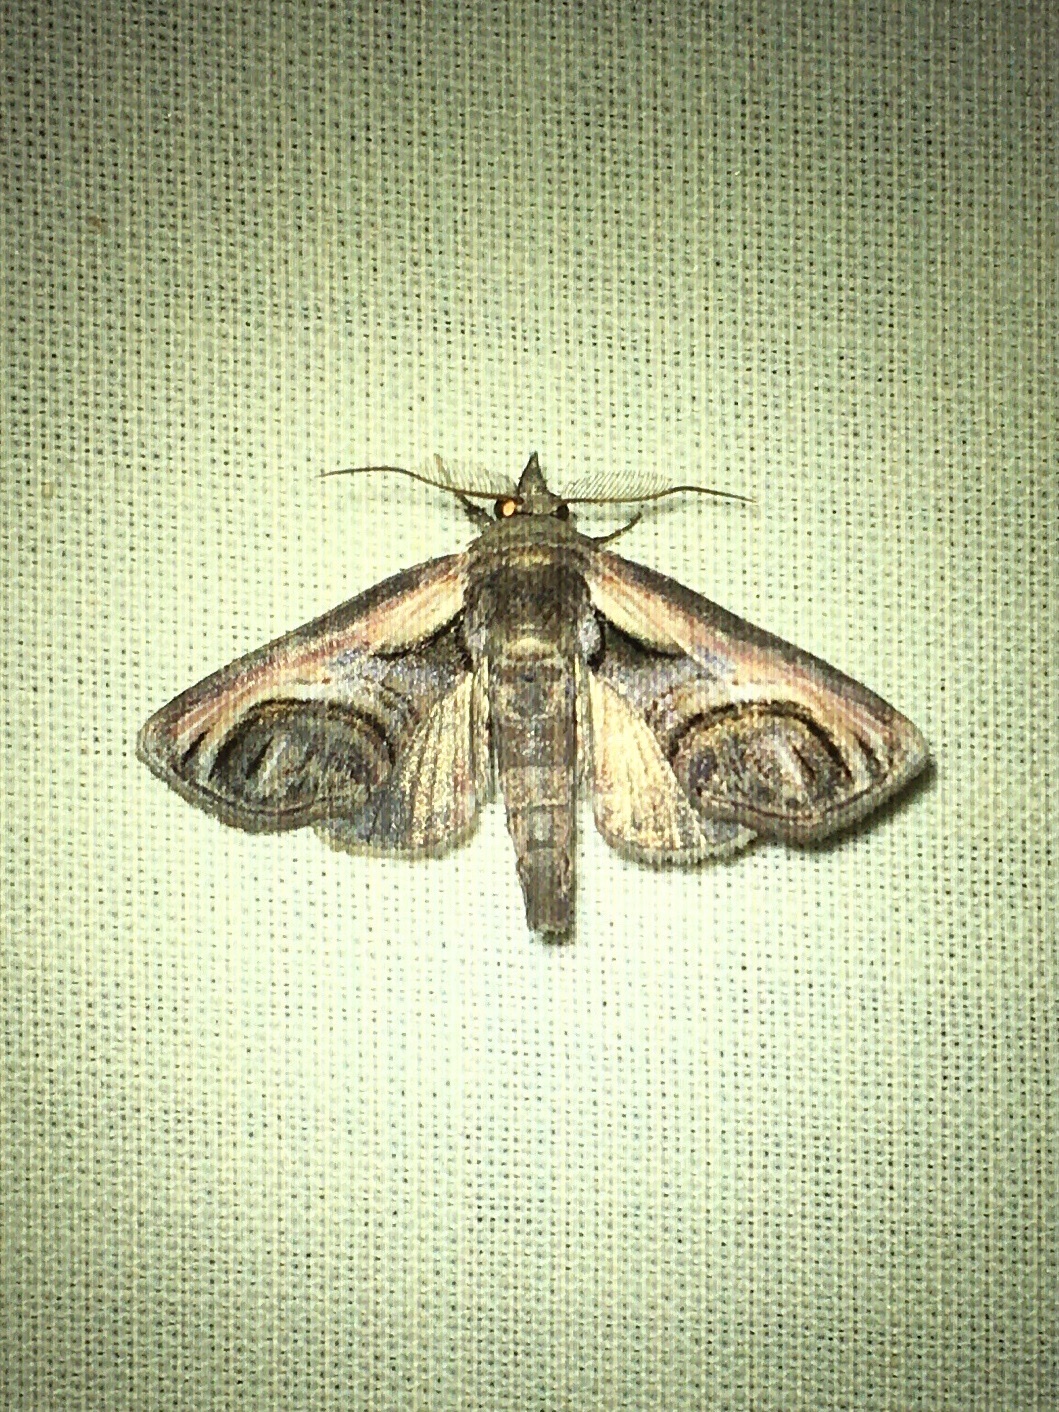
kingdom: Animalia
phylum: Arthropoda
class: Insecta
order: Lepidoptera
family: Euteliidae
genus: Paectes
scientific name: Paectes oculatrix
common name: Eyed paectes moth
